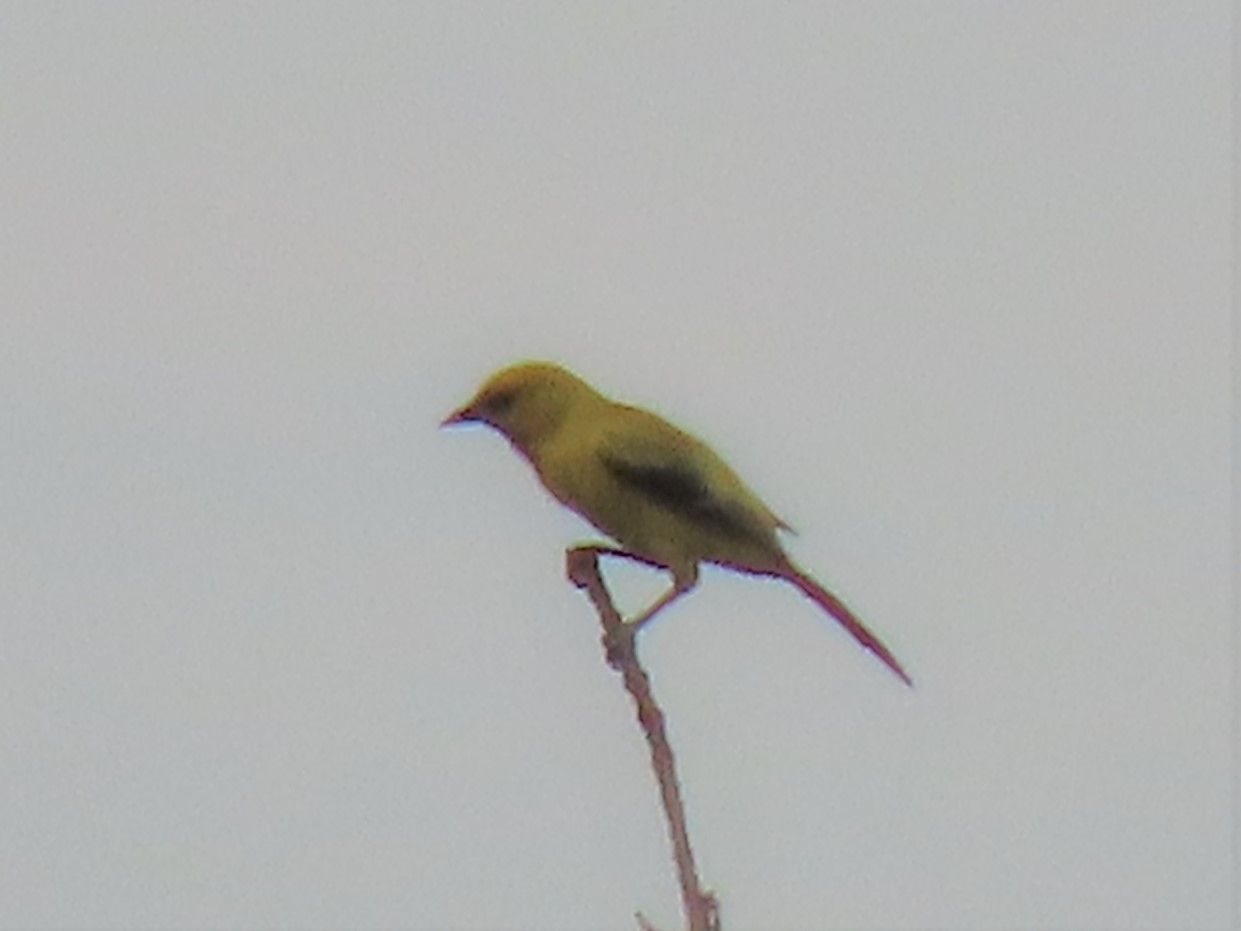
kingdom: Animalia
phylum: Chordata
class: Aves
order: Passeriformes
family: Icteridae
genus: Icterus
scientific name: Icterus nigrogularis
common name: Yellow oriole
